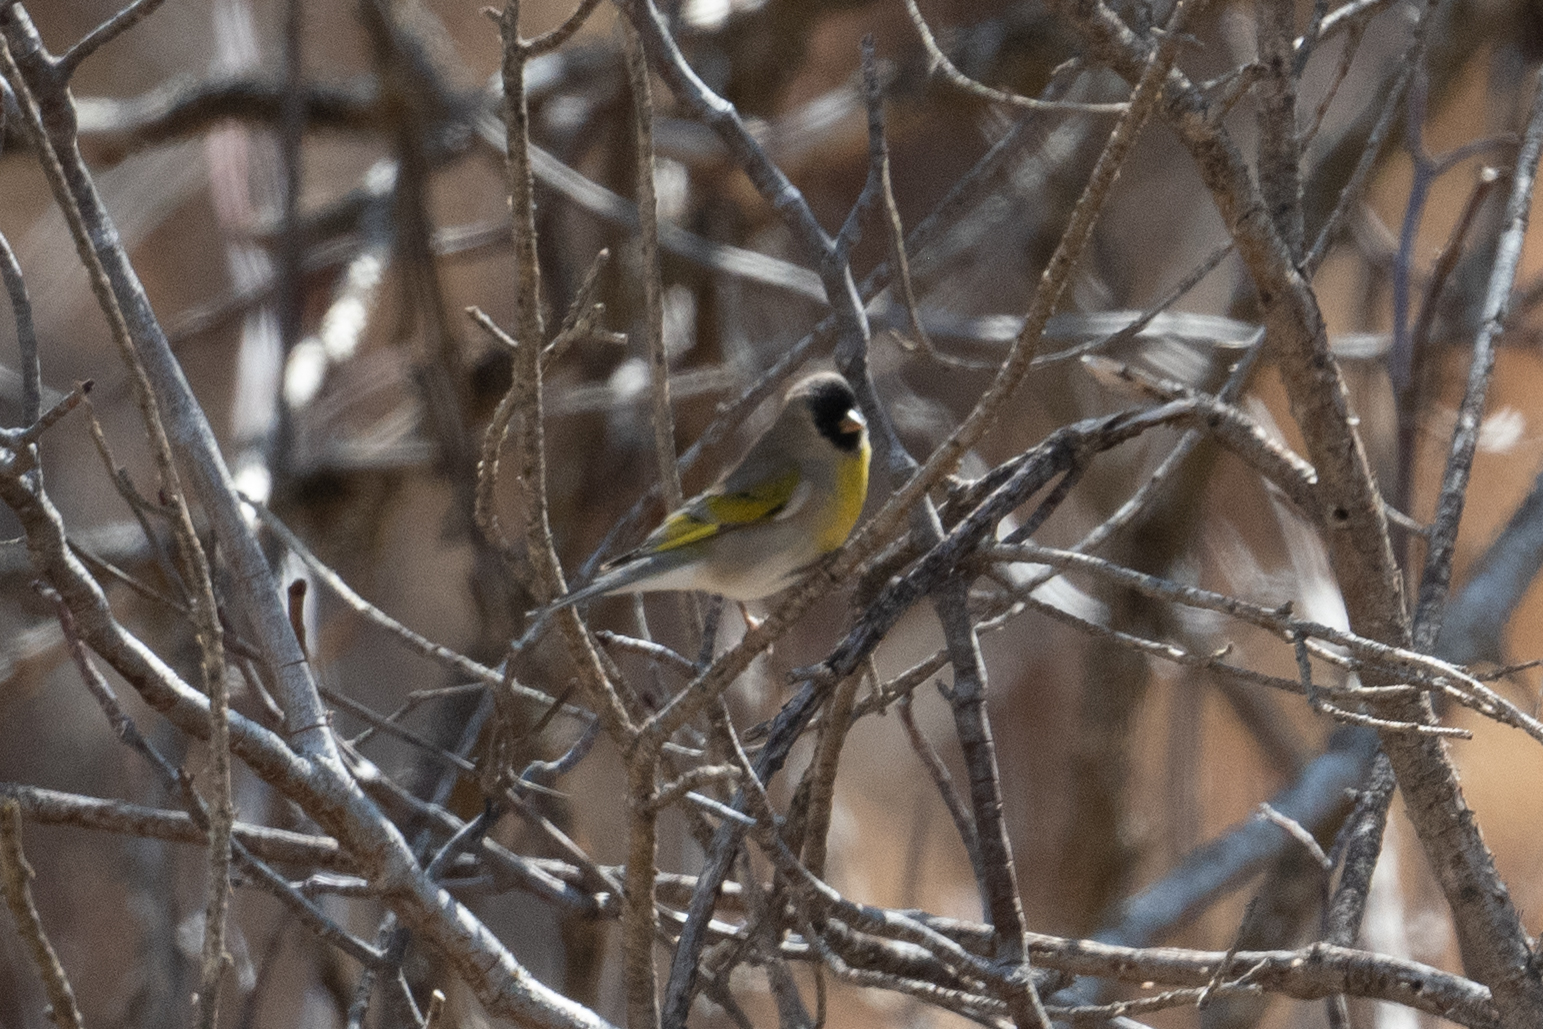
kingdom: Animalia
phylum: Chordata
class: Aves
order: Passeriformes
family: Fringillidae
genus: Spinus
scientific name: Spinus lawrencei
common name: Lawrence's goldfinch
